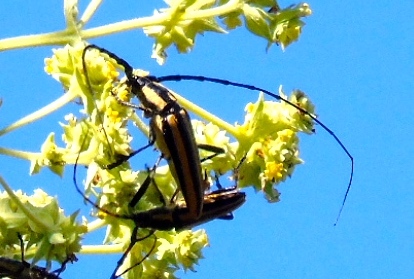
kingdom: Animalia
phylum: Arthropoda
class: Insecta
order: Coleoptera
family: Cerambycidae
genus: Sphaenothecus
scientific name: Sphaenothecus argenteus
